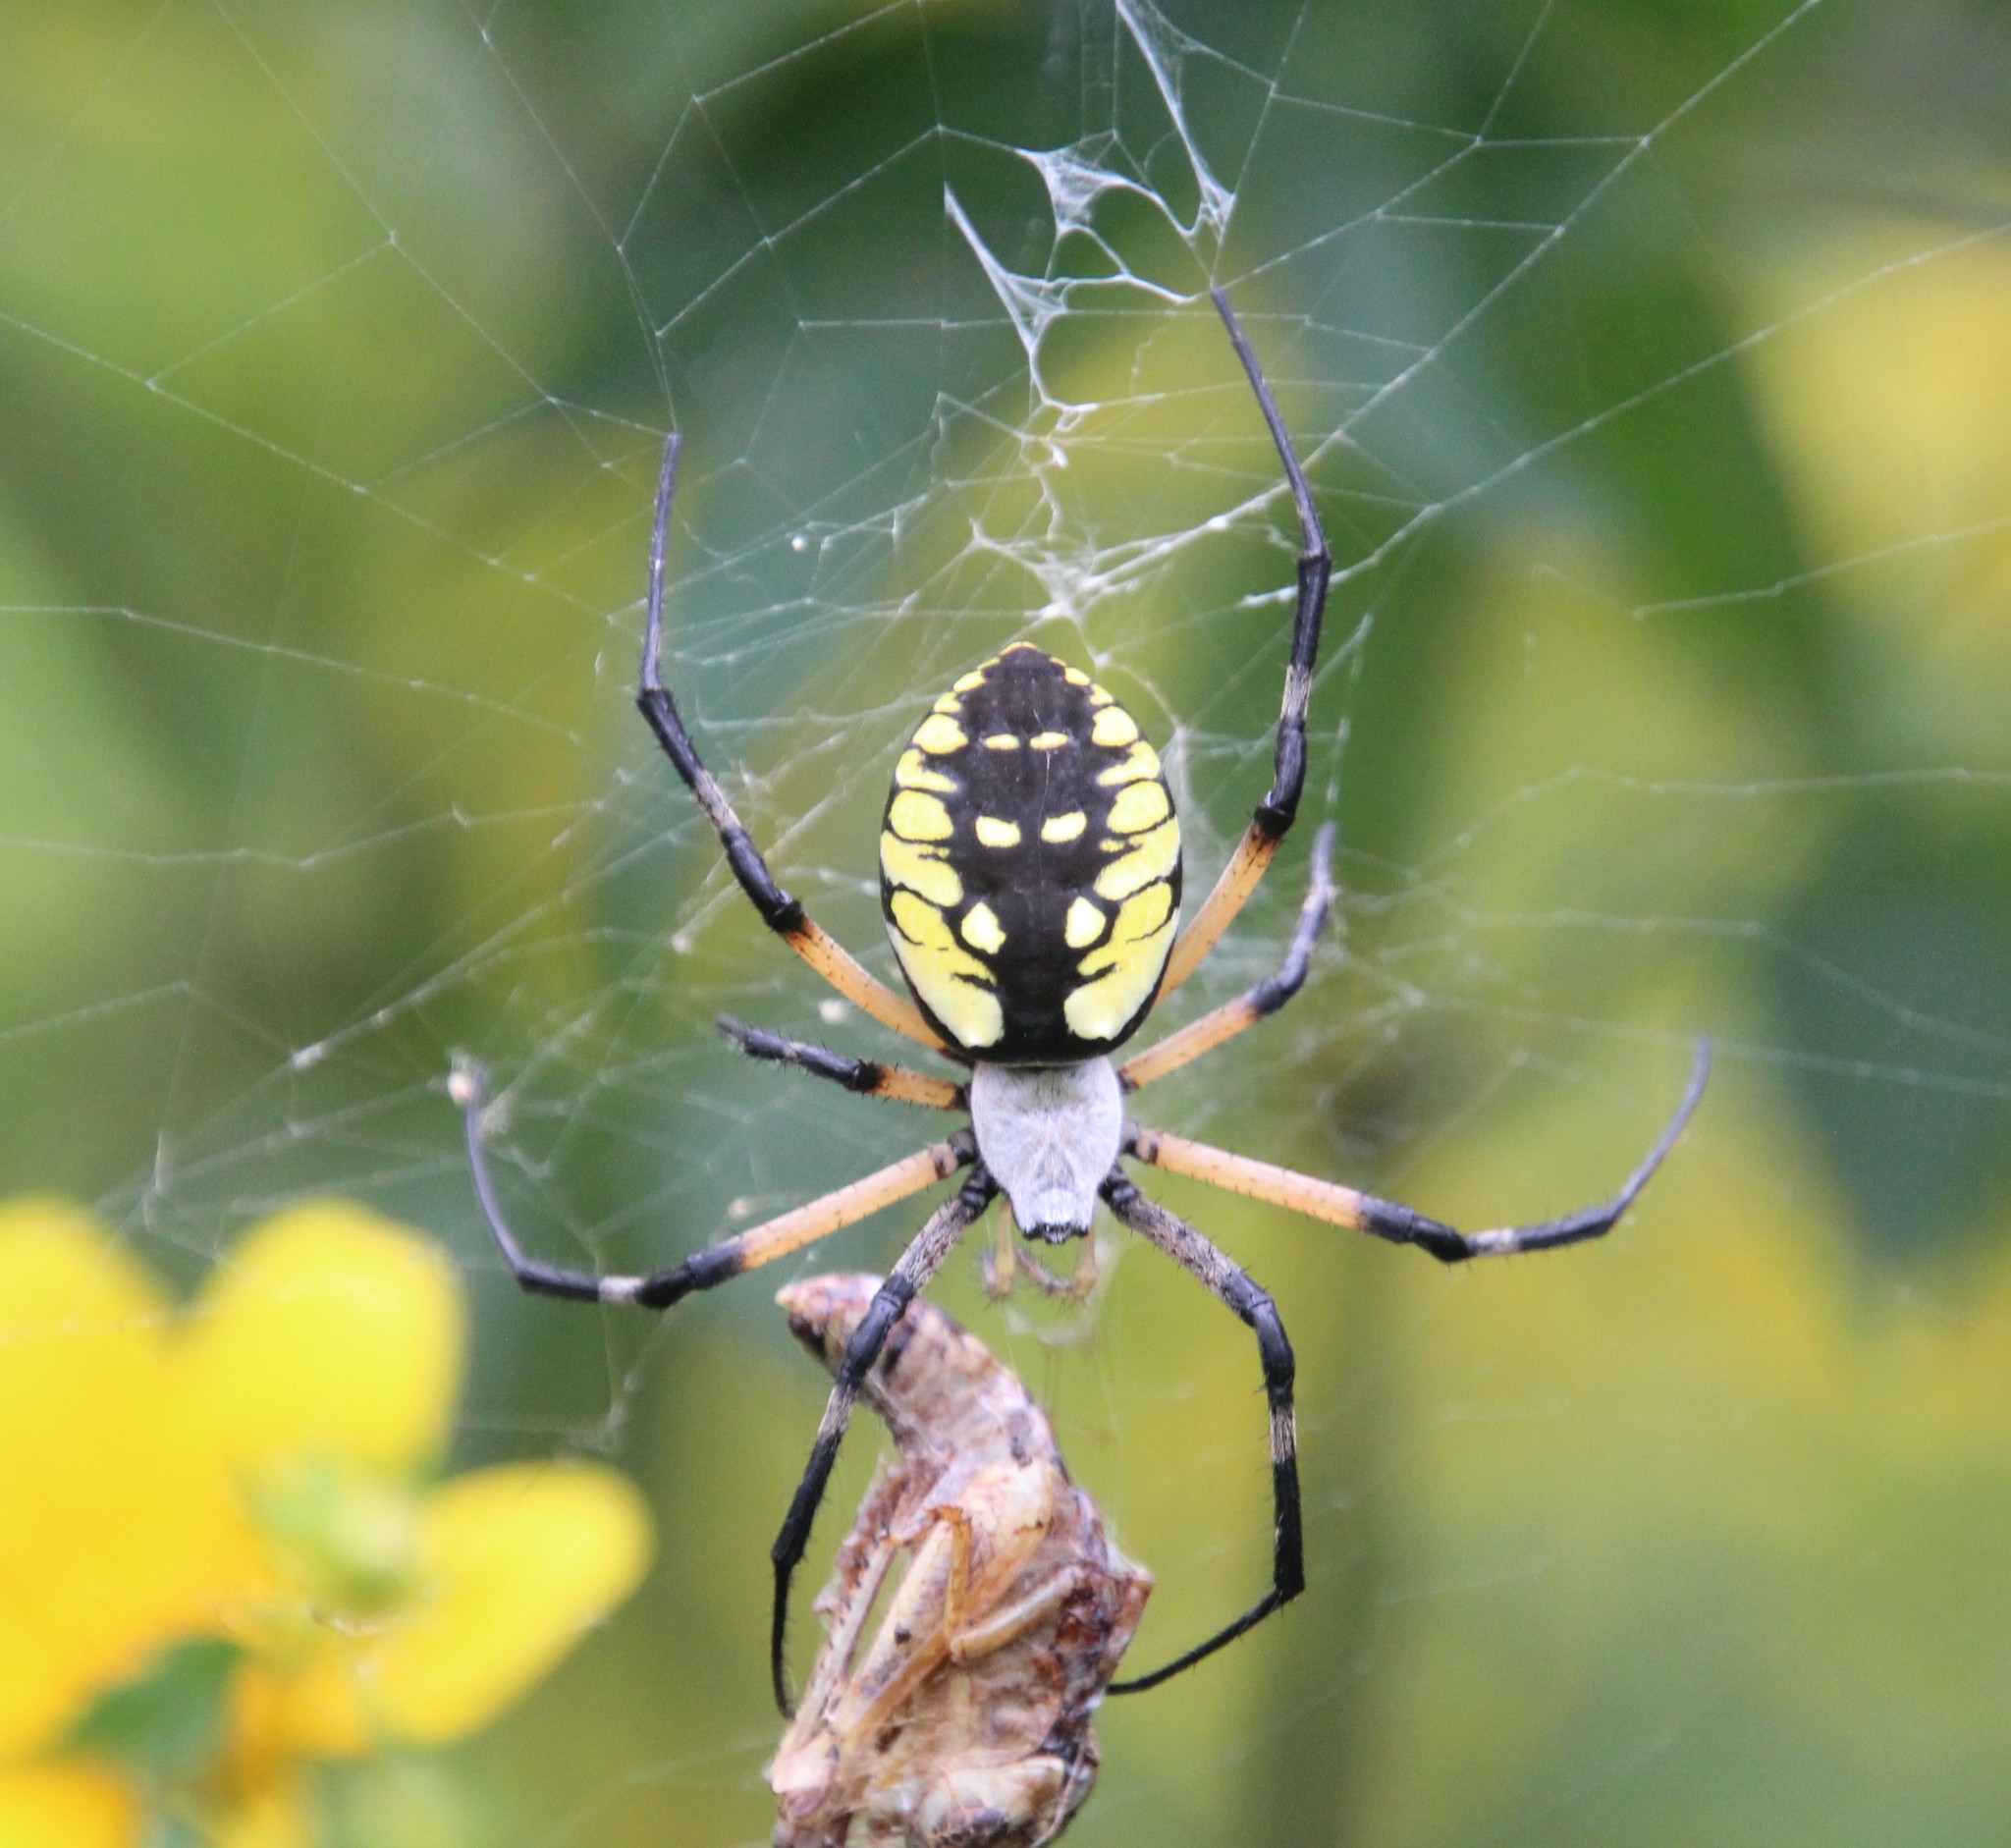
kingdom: Animalia
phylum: Arthropoda
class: Arachnida
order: Araneae
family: Araneidae
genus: Argiope
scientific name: Argiope aurantia
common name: Orb weavers
